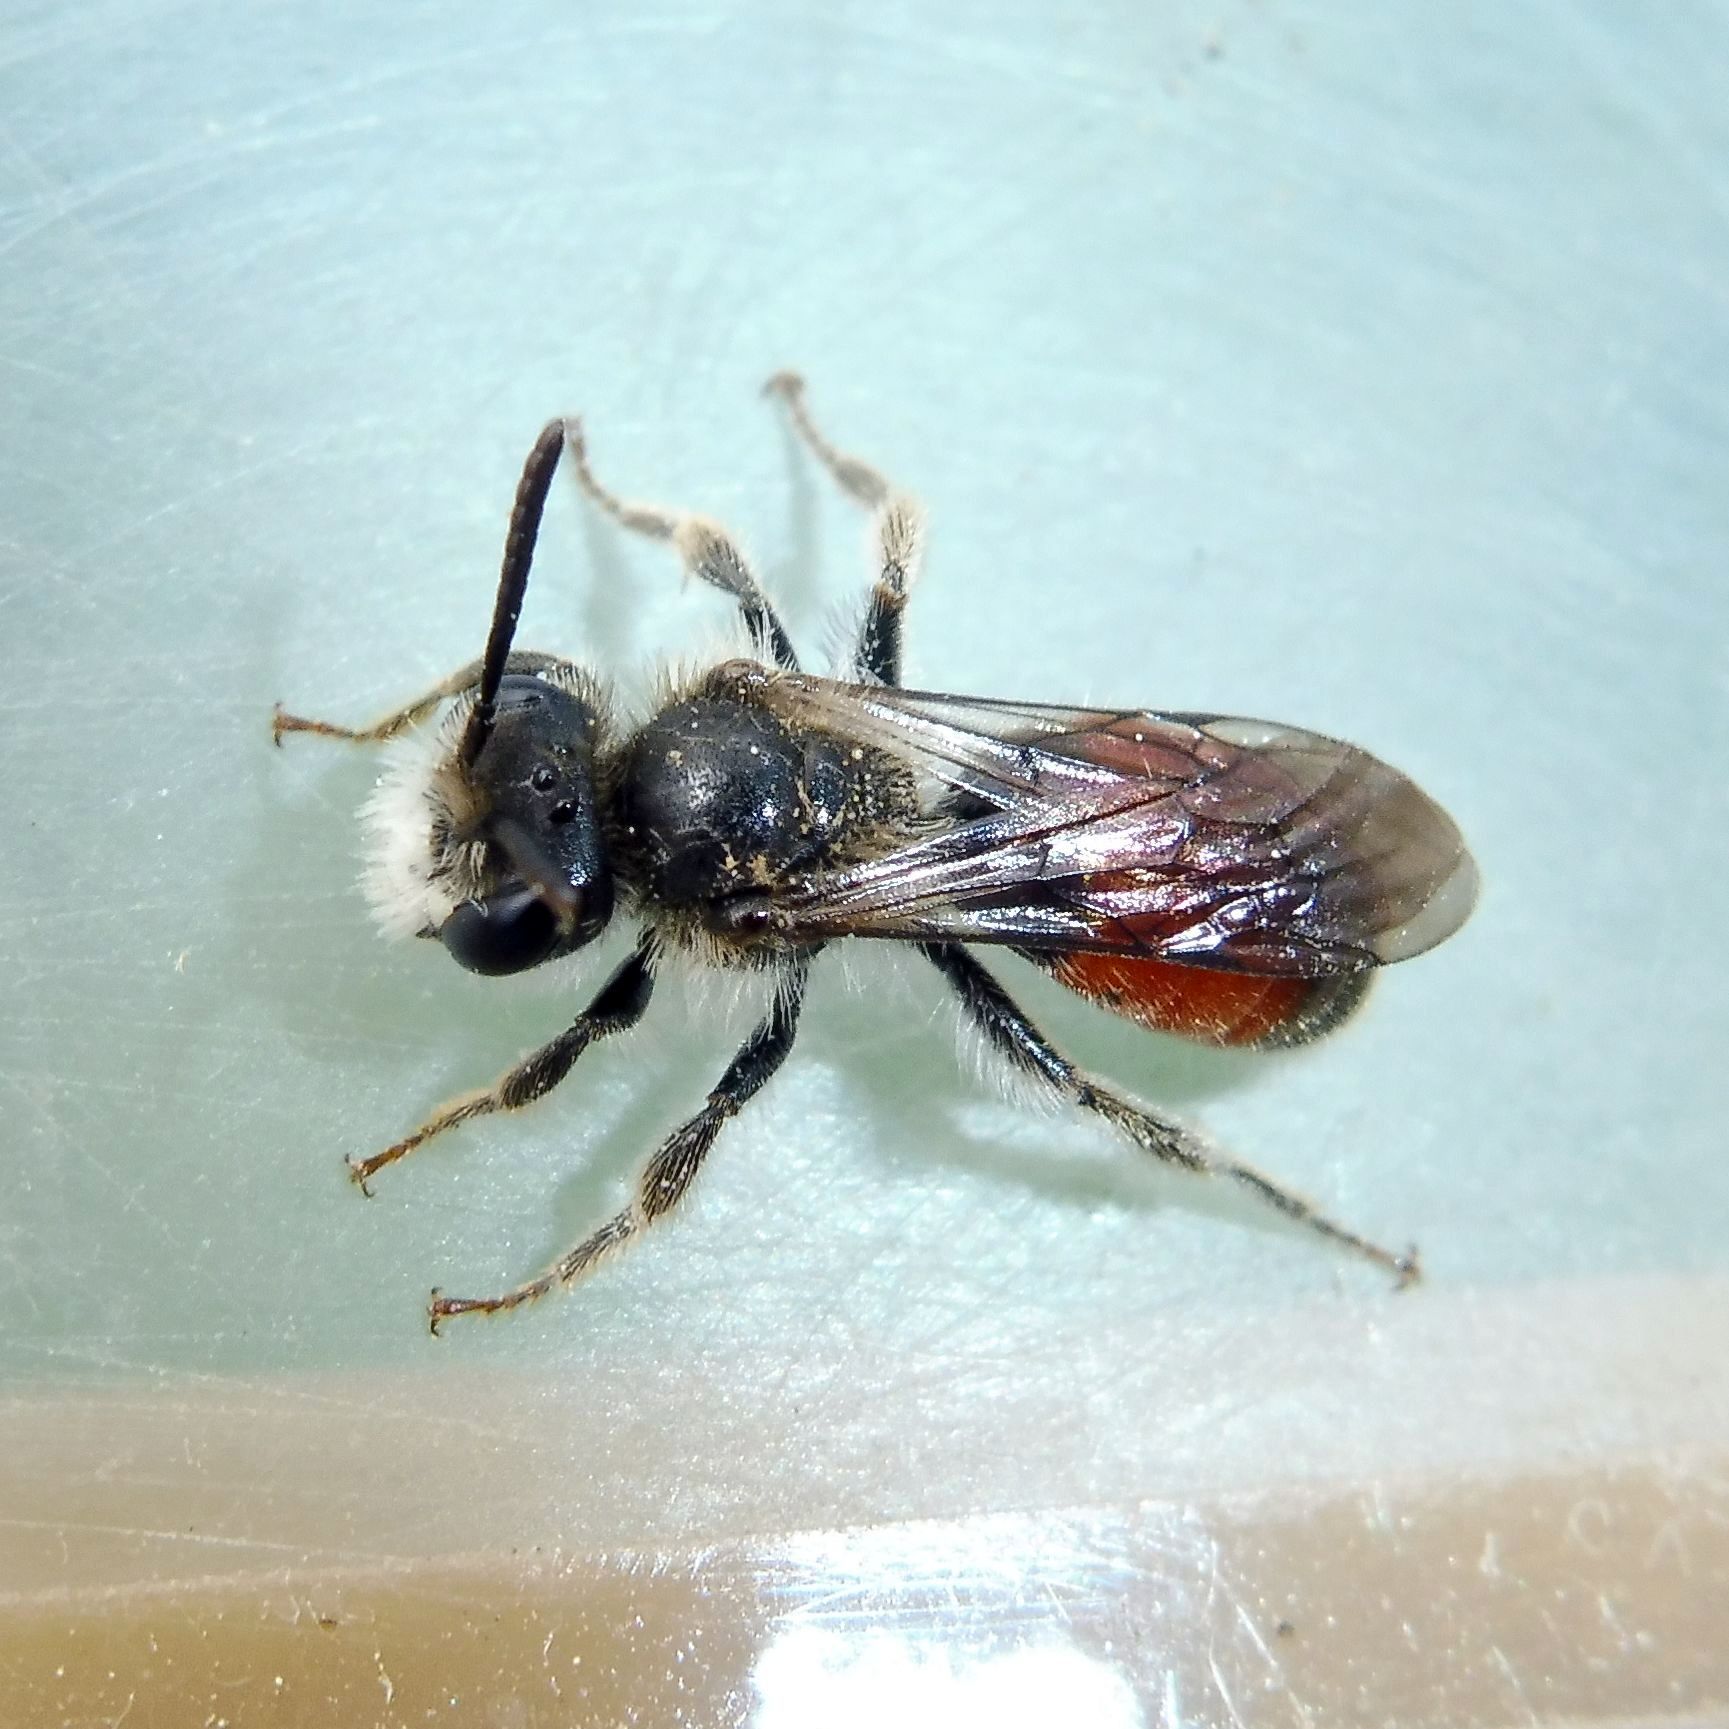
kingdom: Animalia
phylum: Arthropoda
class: Insecta
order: Hymenoptera
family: Andrenidae
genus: Andrena
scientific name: Andrena labiata
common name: Red-girdled mining bee
